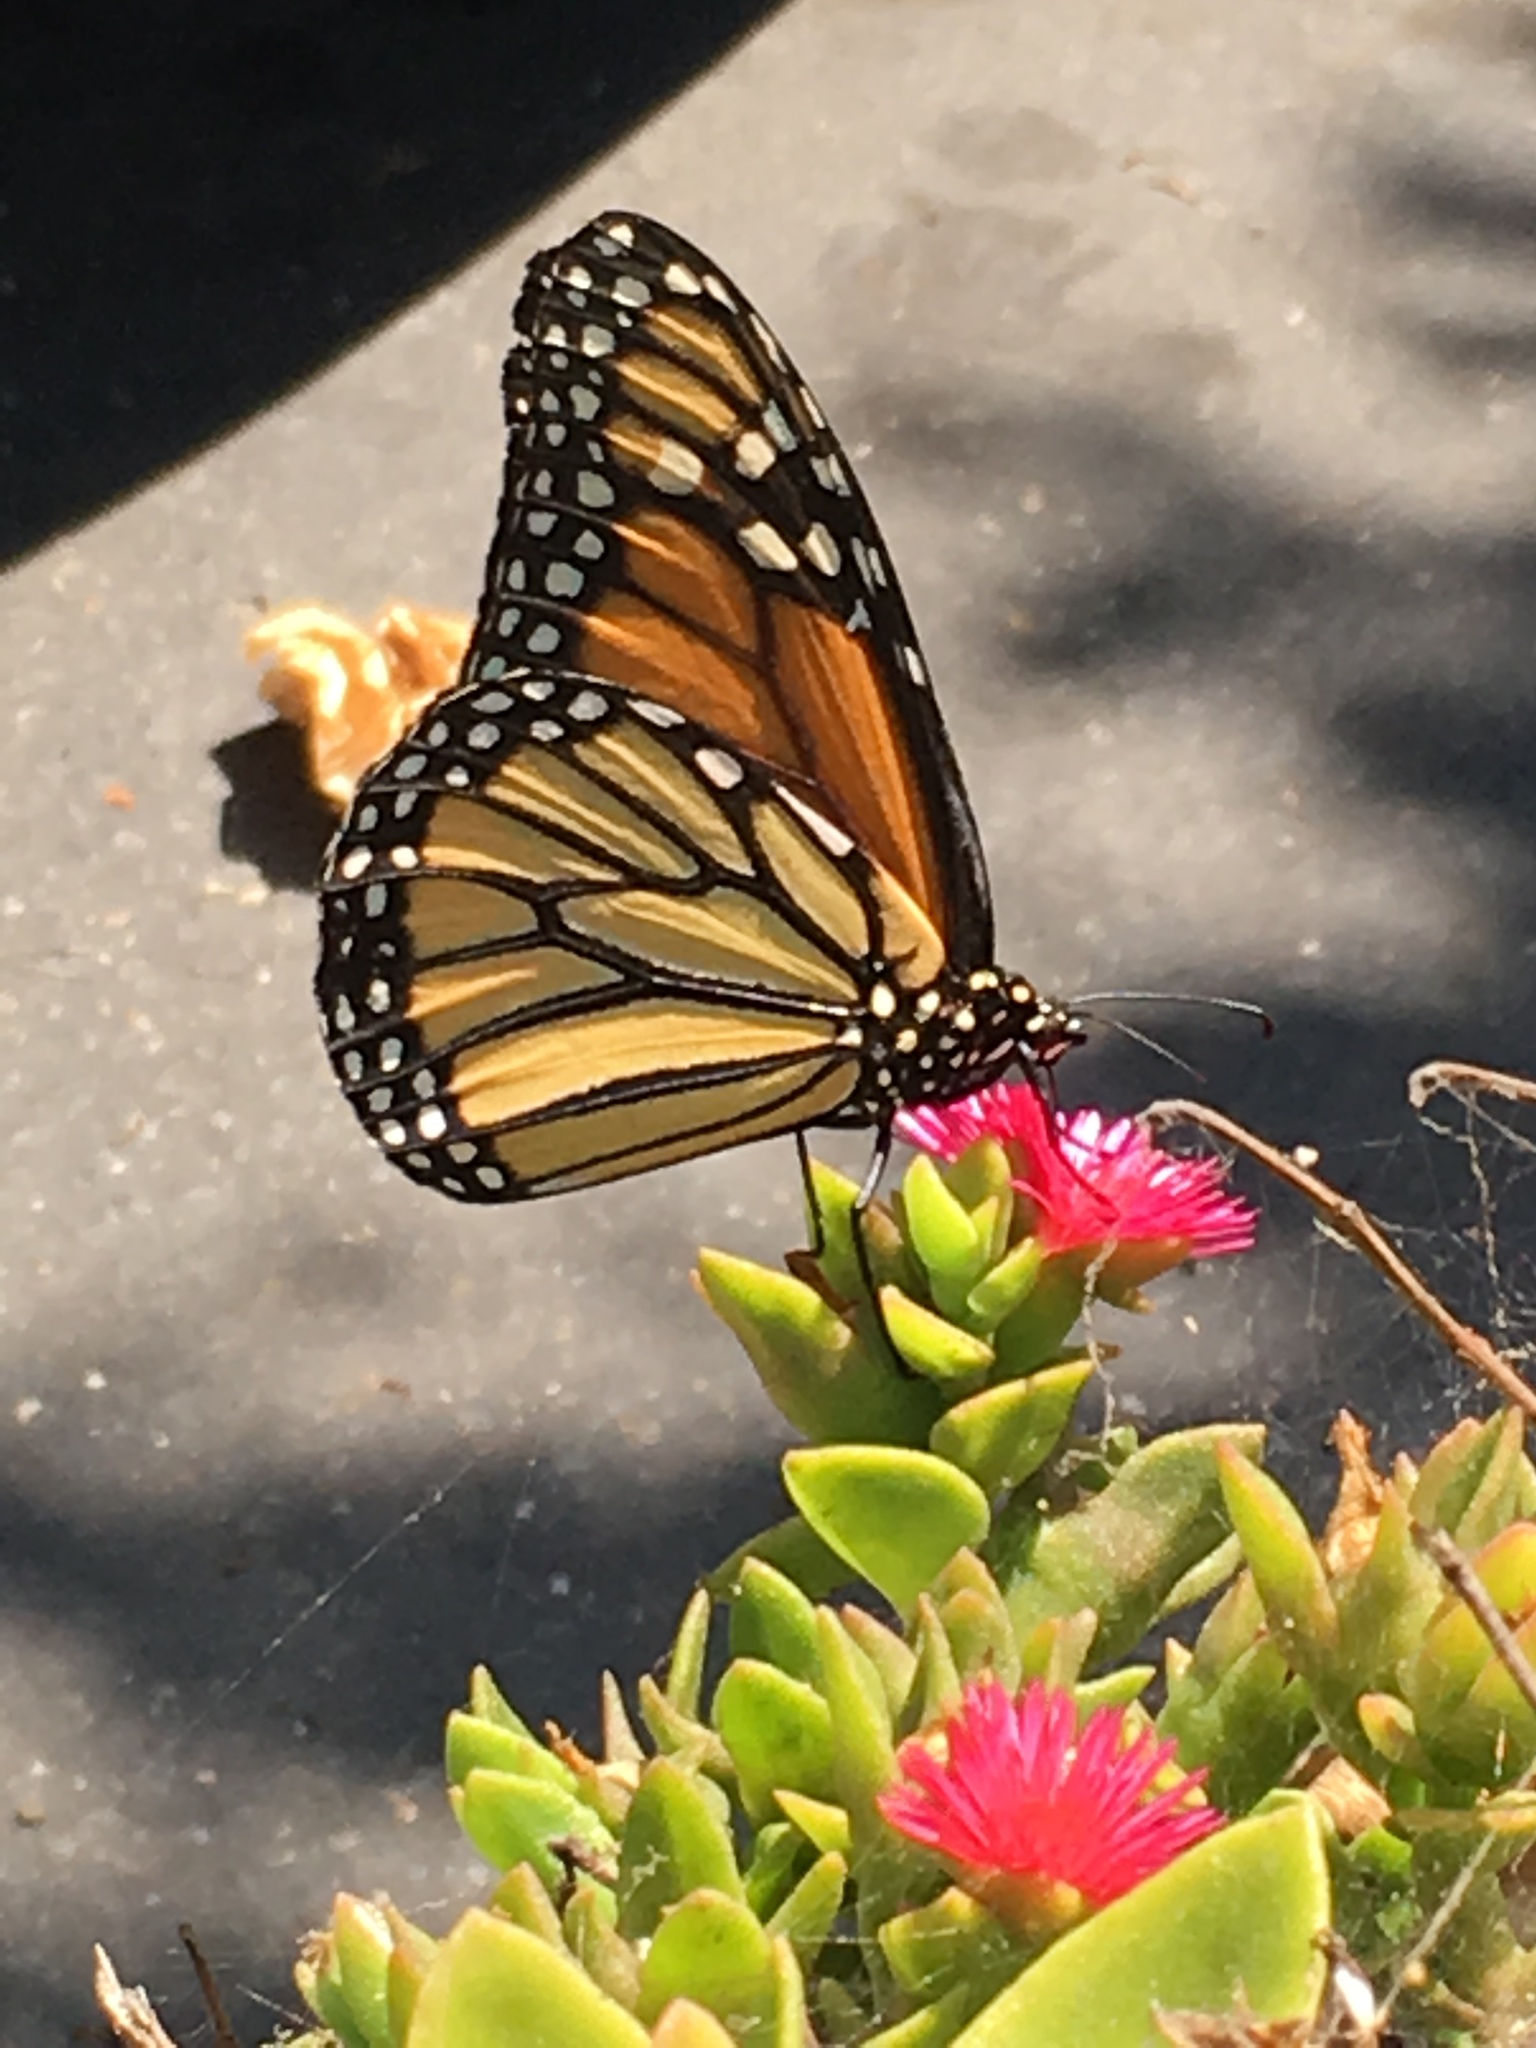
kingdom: Animalia
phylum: Arthropoda
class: Insecta
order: Lepidoptera
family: Nymphalidae
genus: Danaus
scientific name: Danaus plexippus
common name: Monarch
